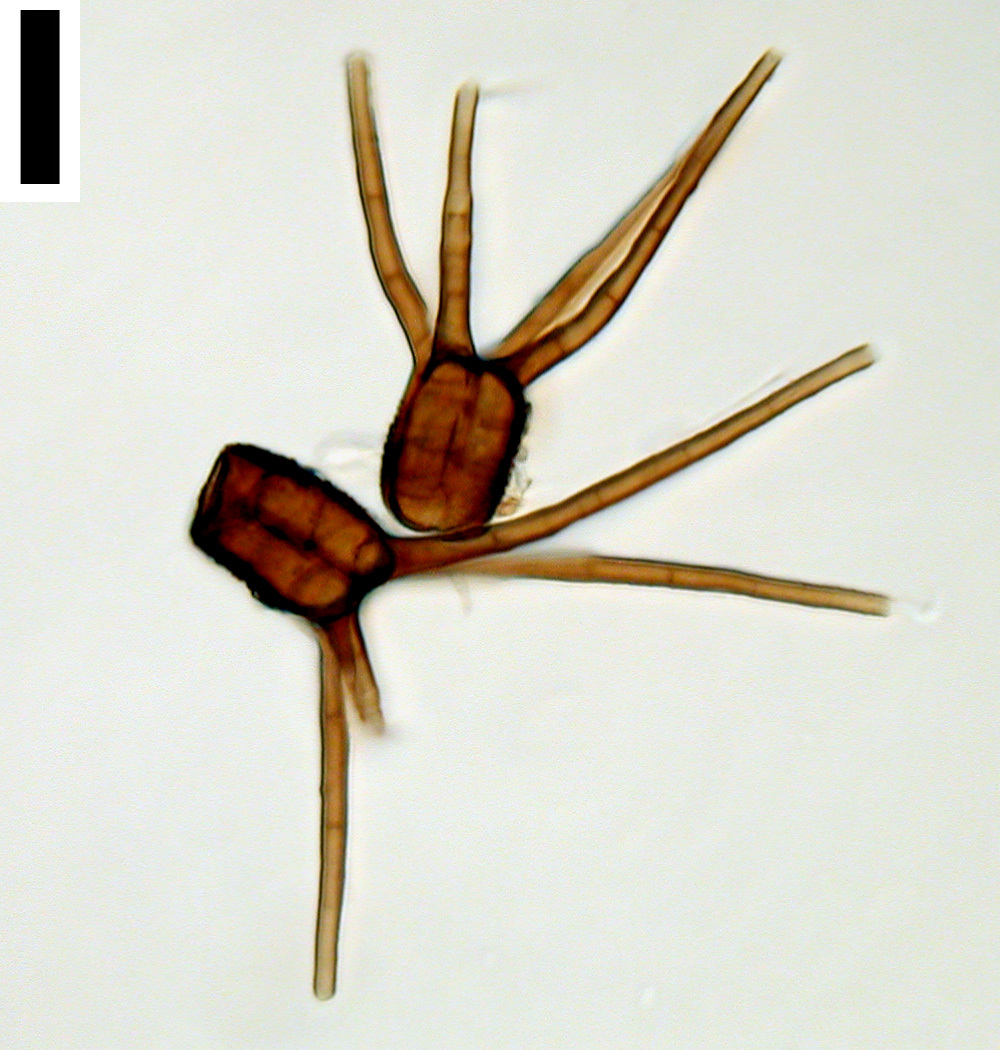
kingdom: Fungi
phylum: Ascomycota
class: Dothideomycetes
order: Pleosporales
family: Tetraplosphaeriaceae
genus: Tetraploa
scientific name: Tetraploa aristata
